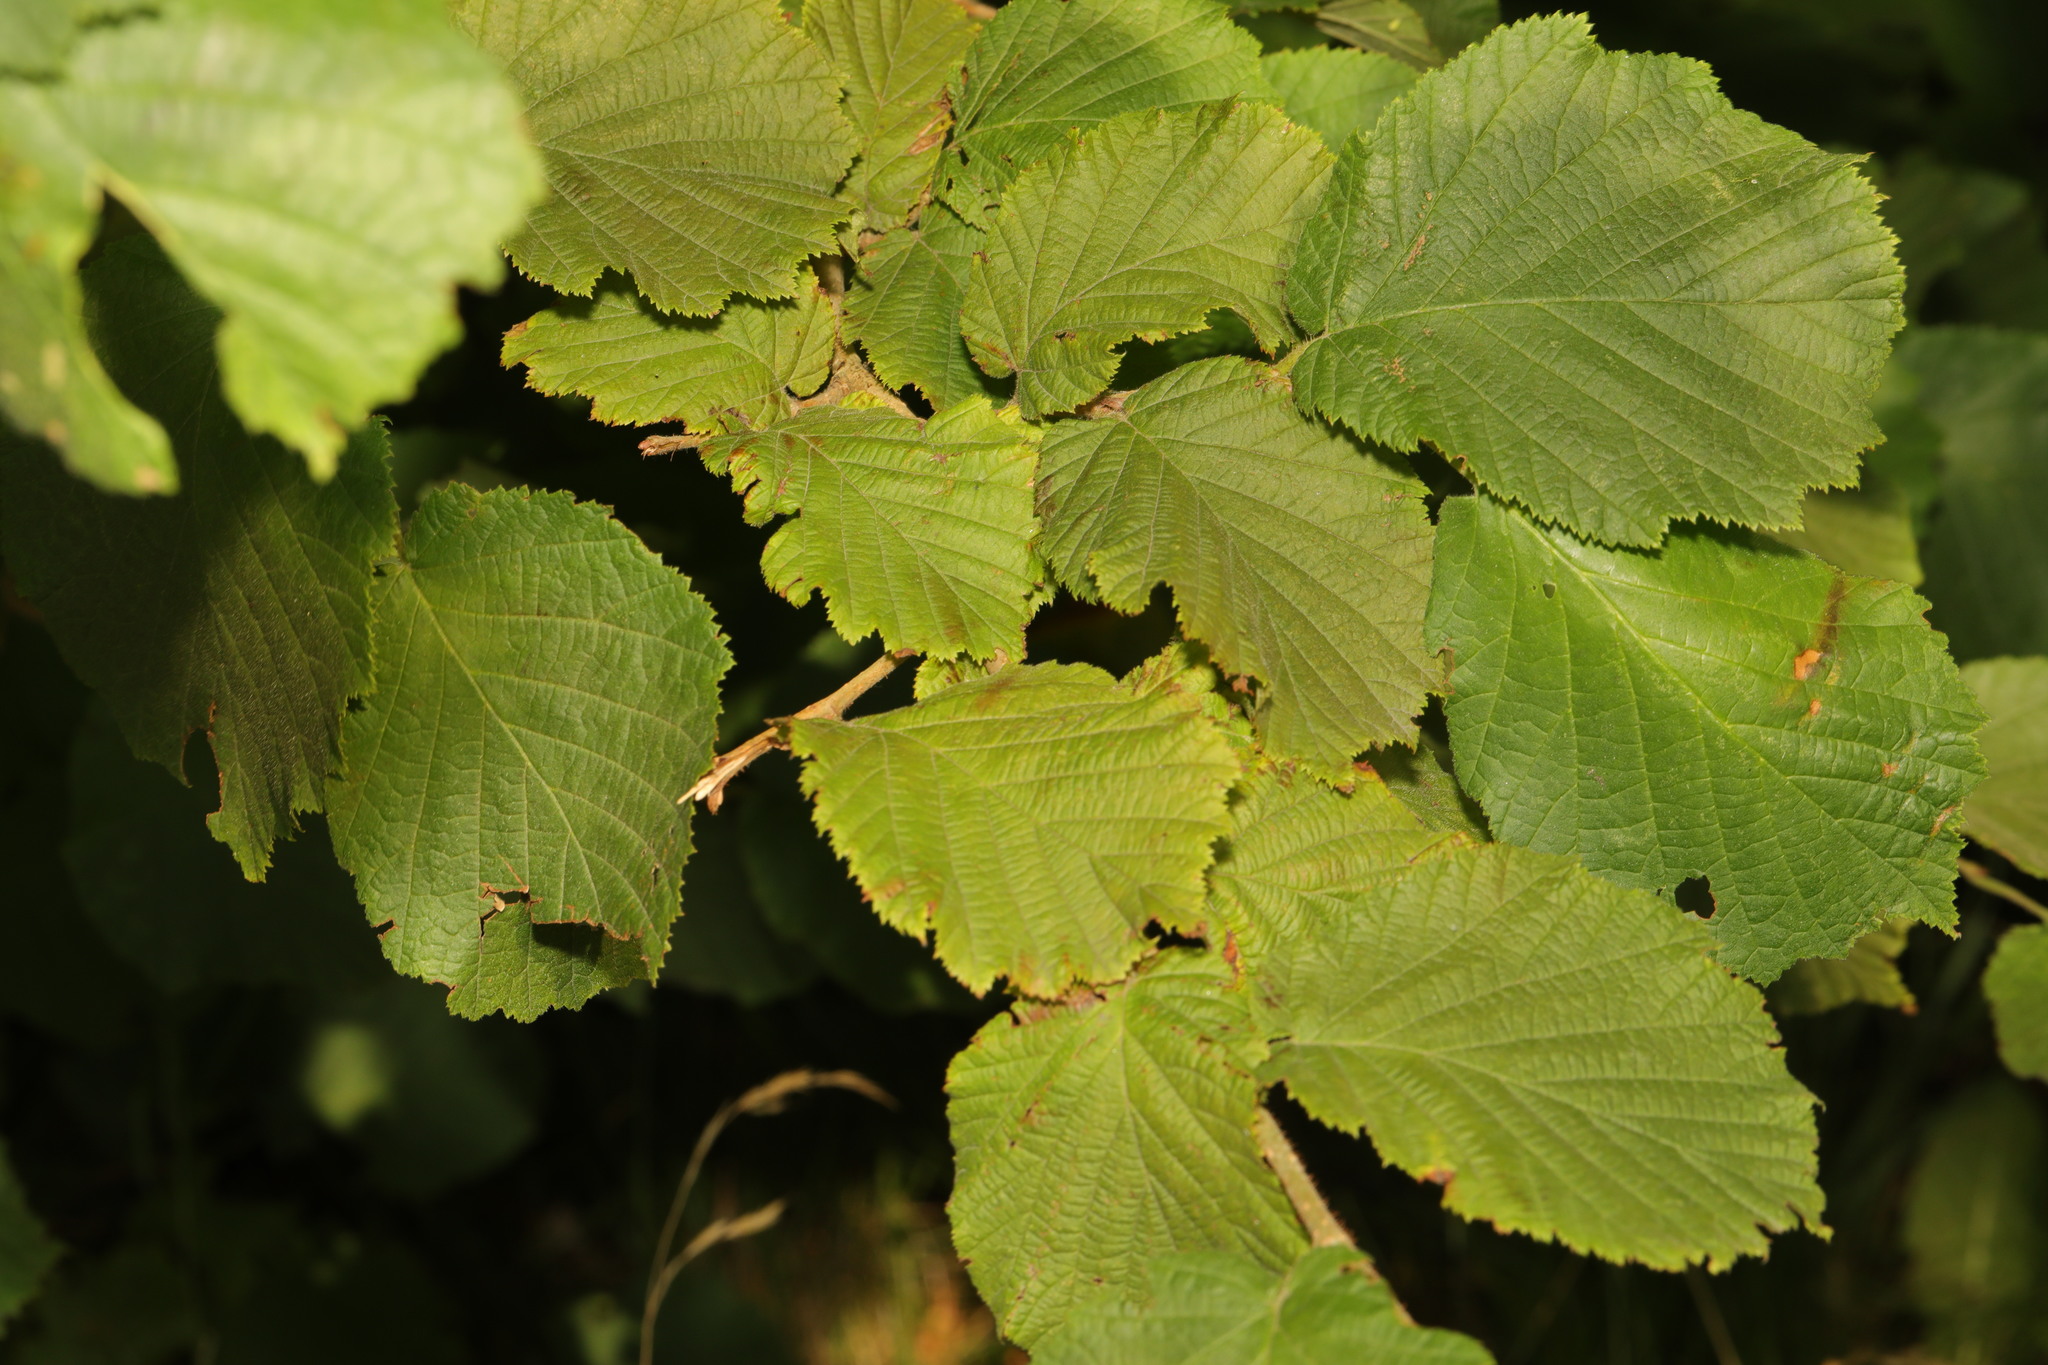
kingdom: Plantae
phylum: Tracheophyta
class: Magnoliopsida
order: Fagales
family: Betulaceae
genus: Corylus
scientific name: Corylus avellana
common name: European hazel
